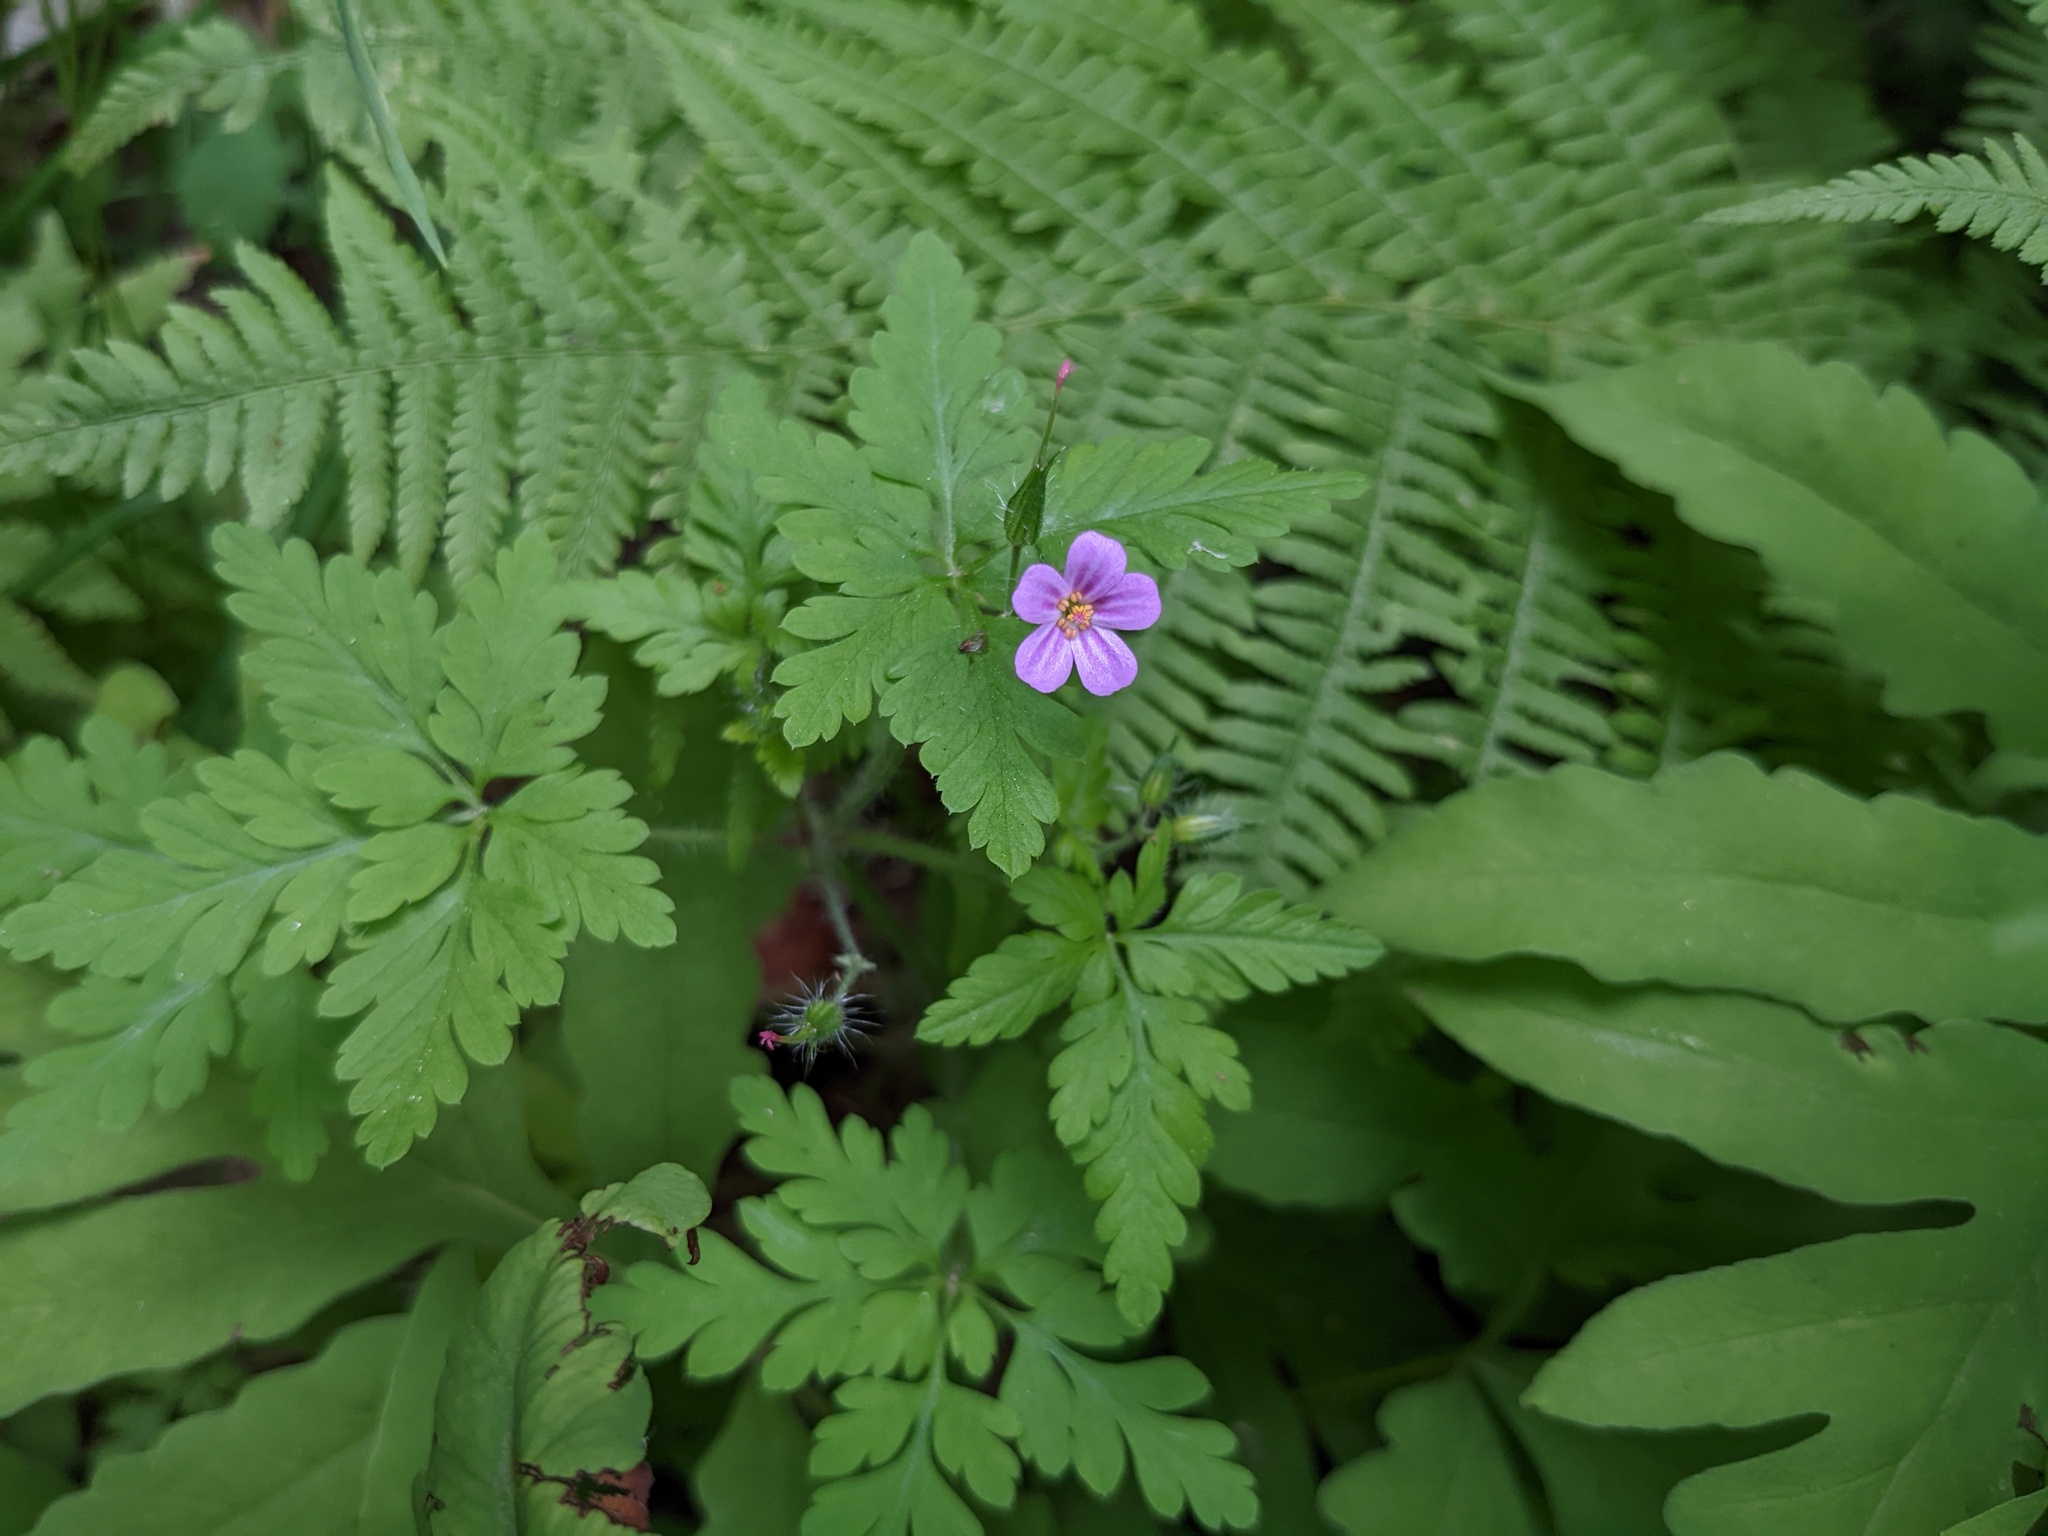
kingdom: Plantae
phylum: Tracheophyta
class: Magnoliopsida
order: Geraniales
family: Geraniaceae
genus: Geranium
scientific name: Geranium robertianum
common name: Herb-robert
